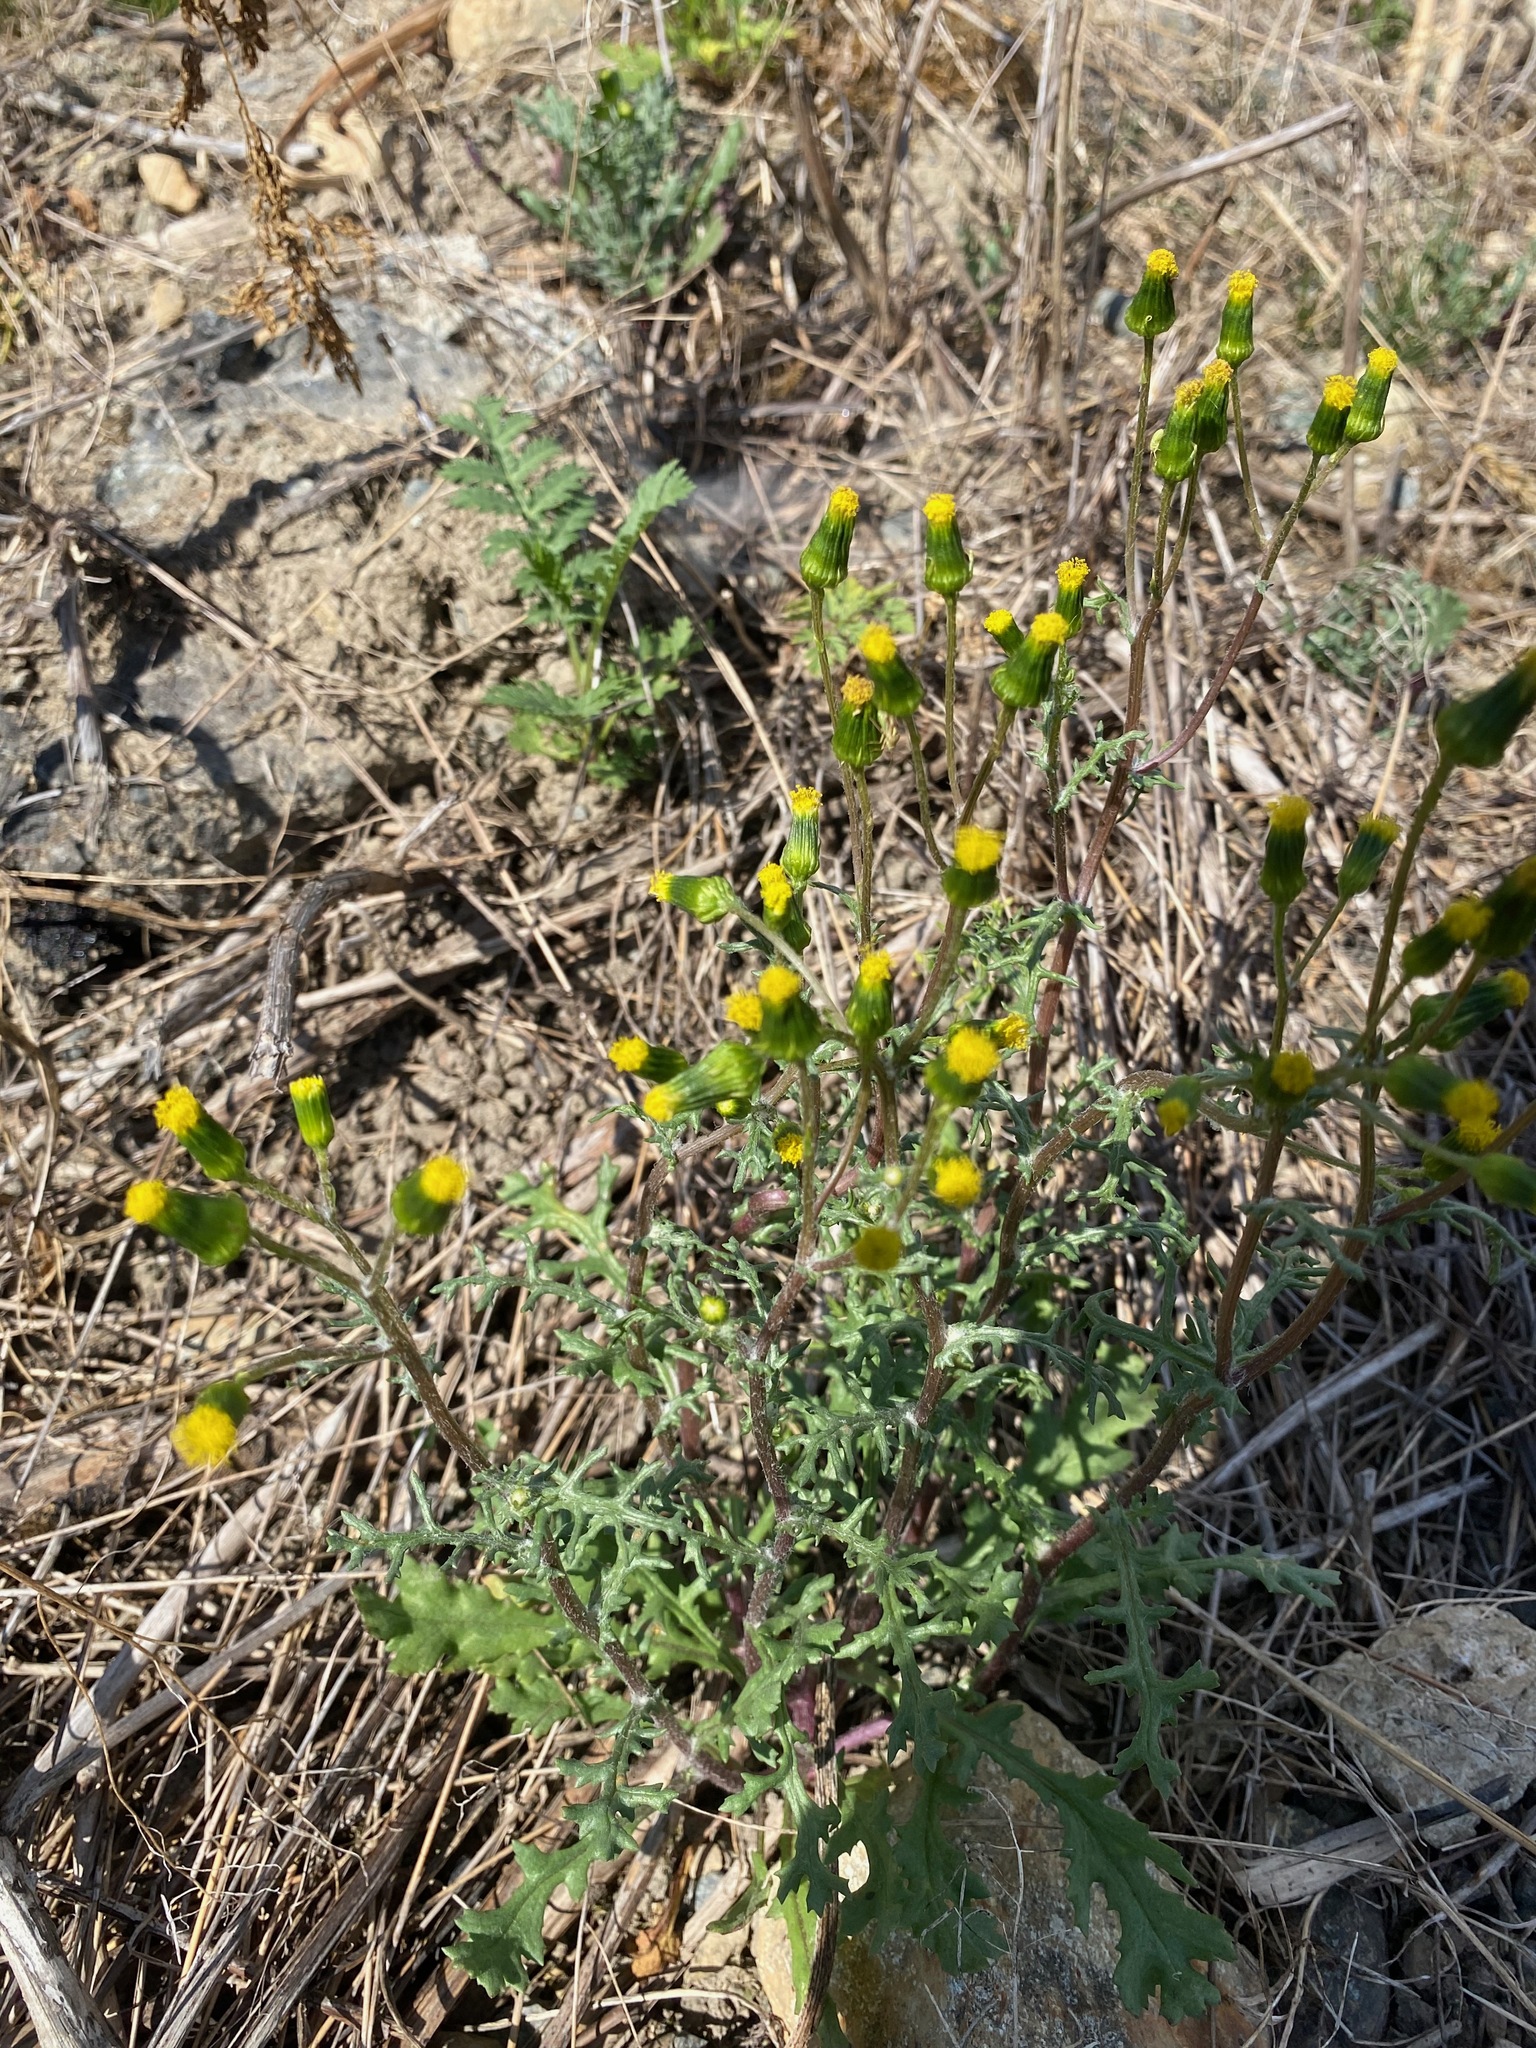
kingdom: Plantae
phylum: Tracheophyta
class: Magnoliopsida
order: Asterales
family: Asteraceae
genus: Senecio
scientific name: Senecio vulgaris
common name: Old-man-in-the-spring
